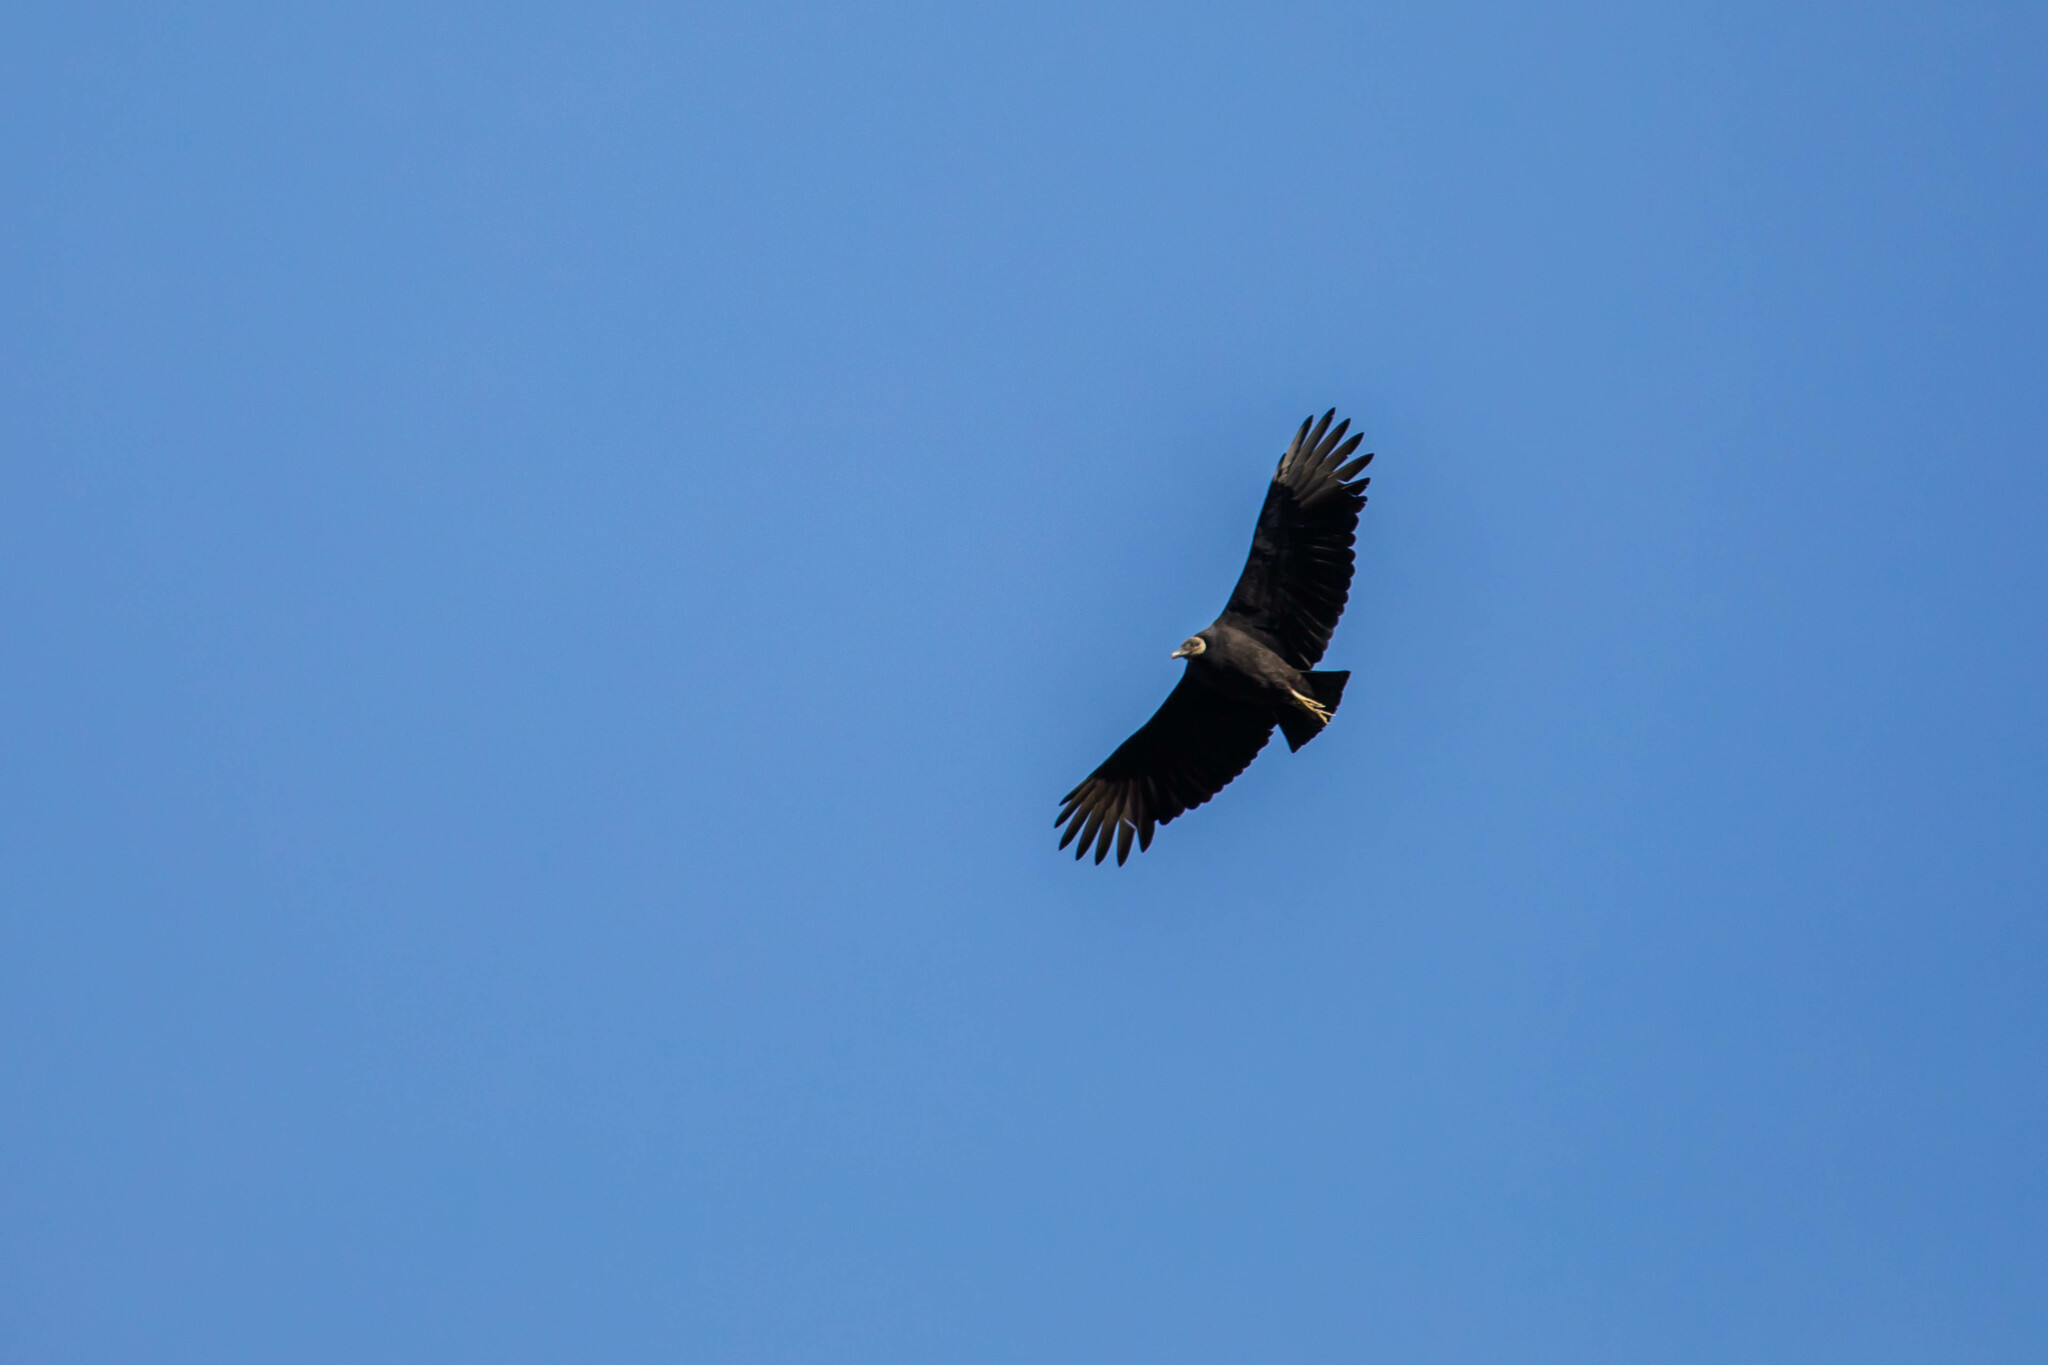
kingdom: Animalia
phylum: Chordata
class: Aves
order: Accipitriformes
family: Cathartidae
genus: Coragyps
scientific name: Coragyps atratus
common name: Black vulture
